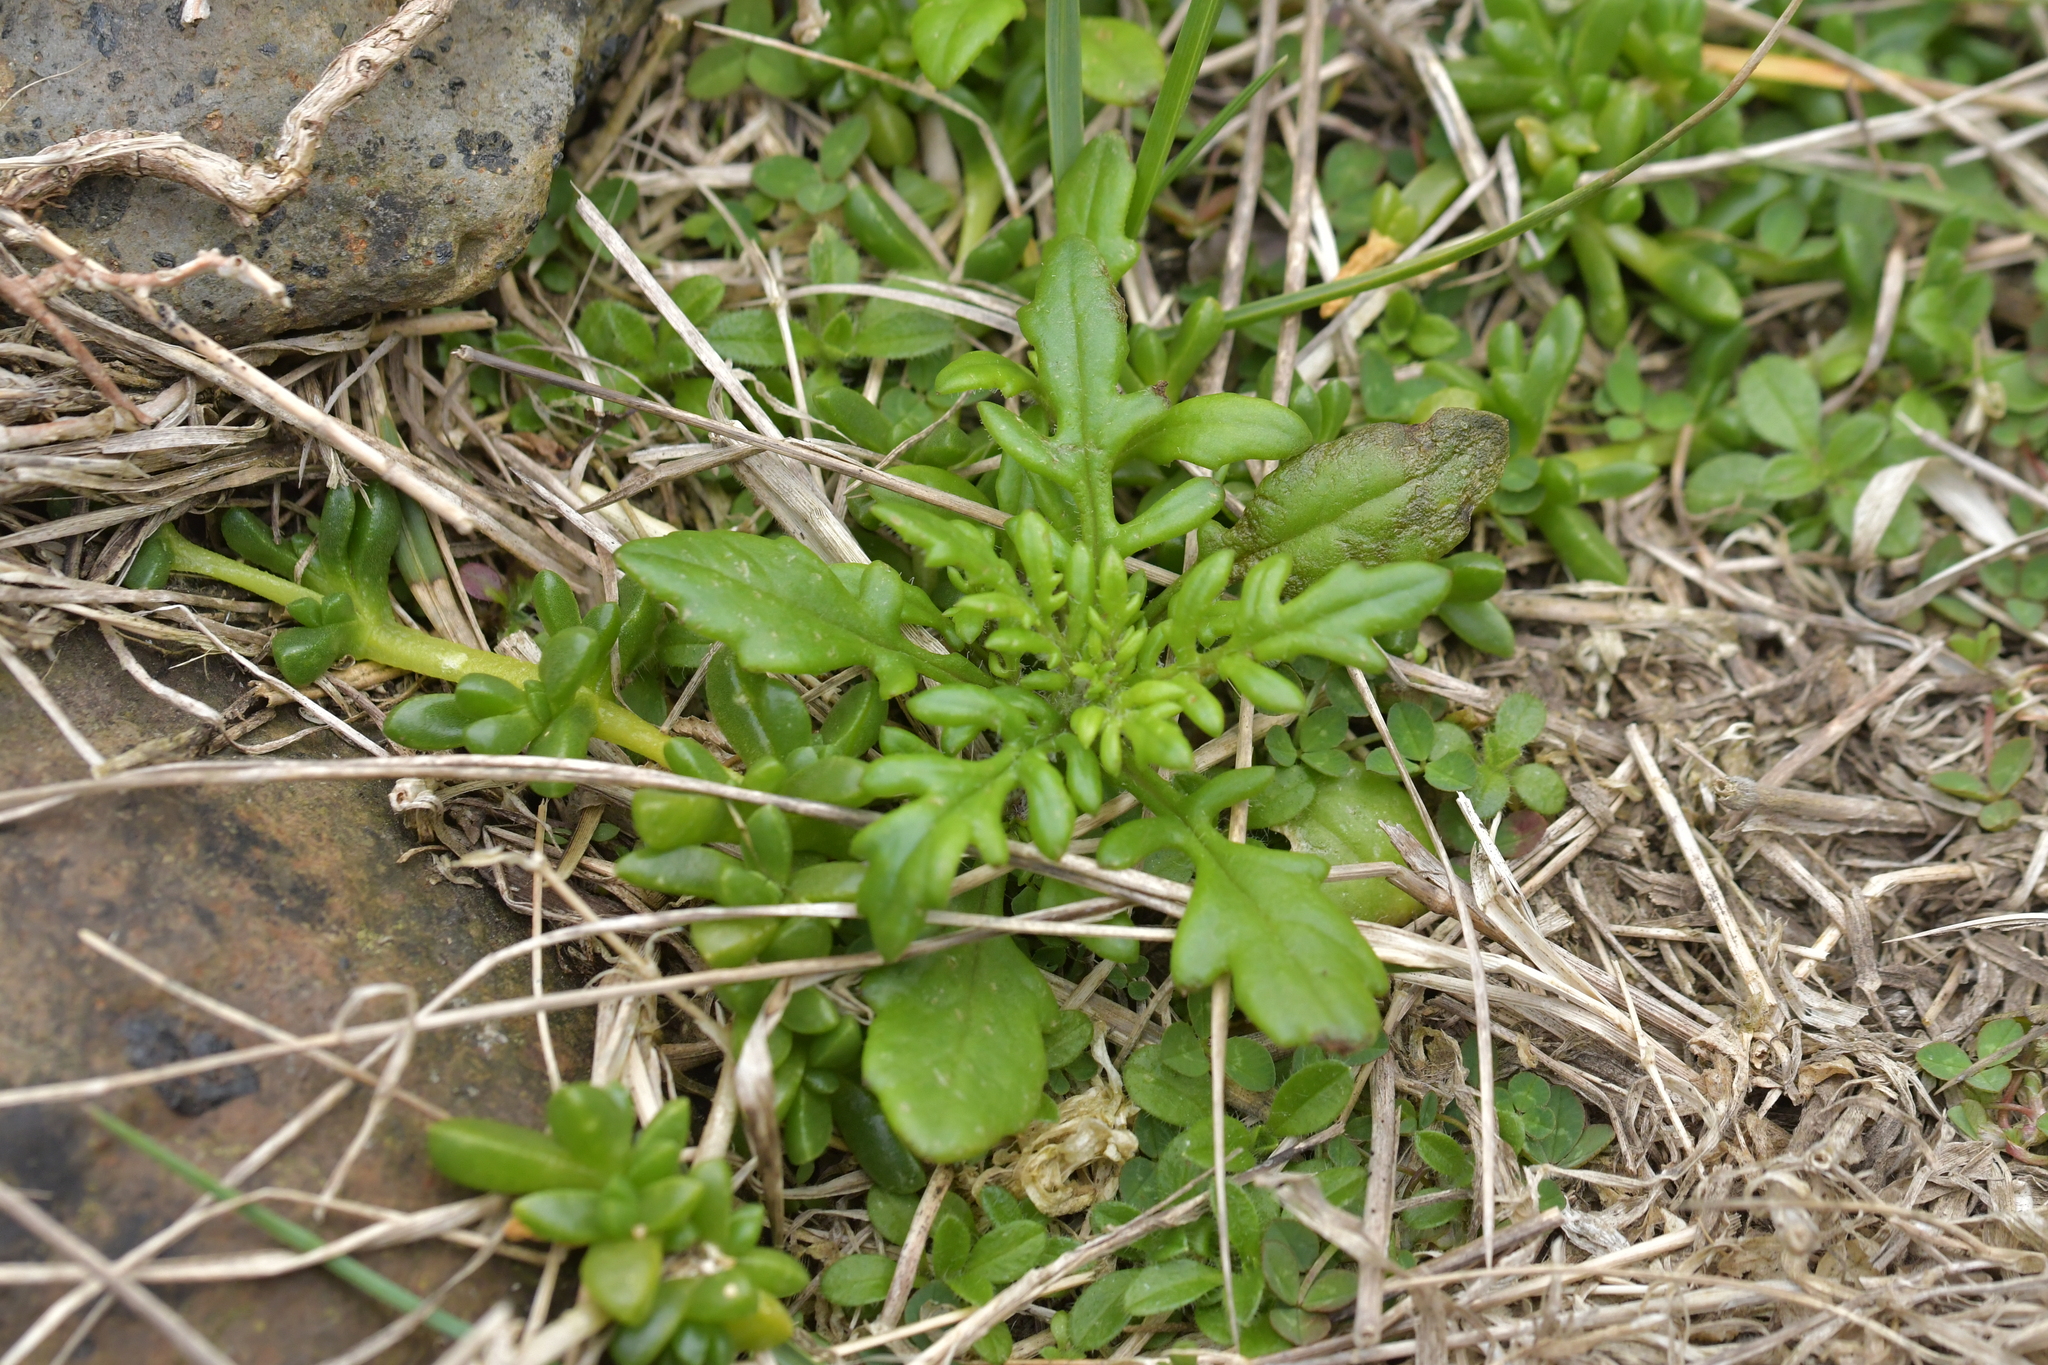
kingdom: Plantae
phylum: Tracheophyta
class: Magnoliopsida
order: Asterales
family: Asteraceae
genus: Senecio
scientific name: Senecio lautus
